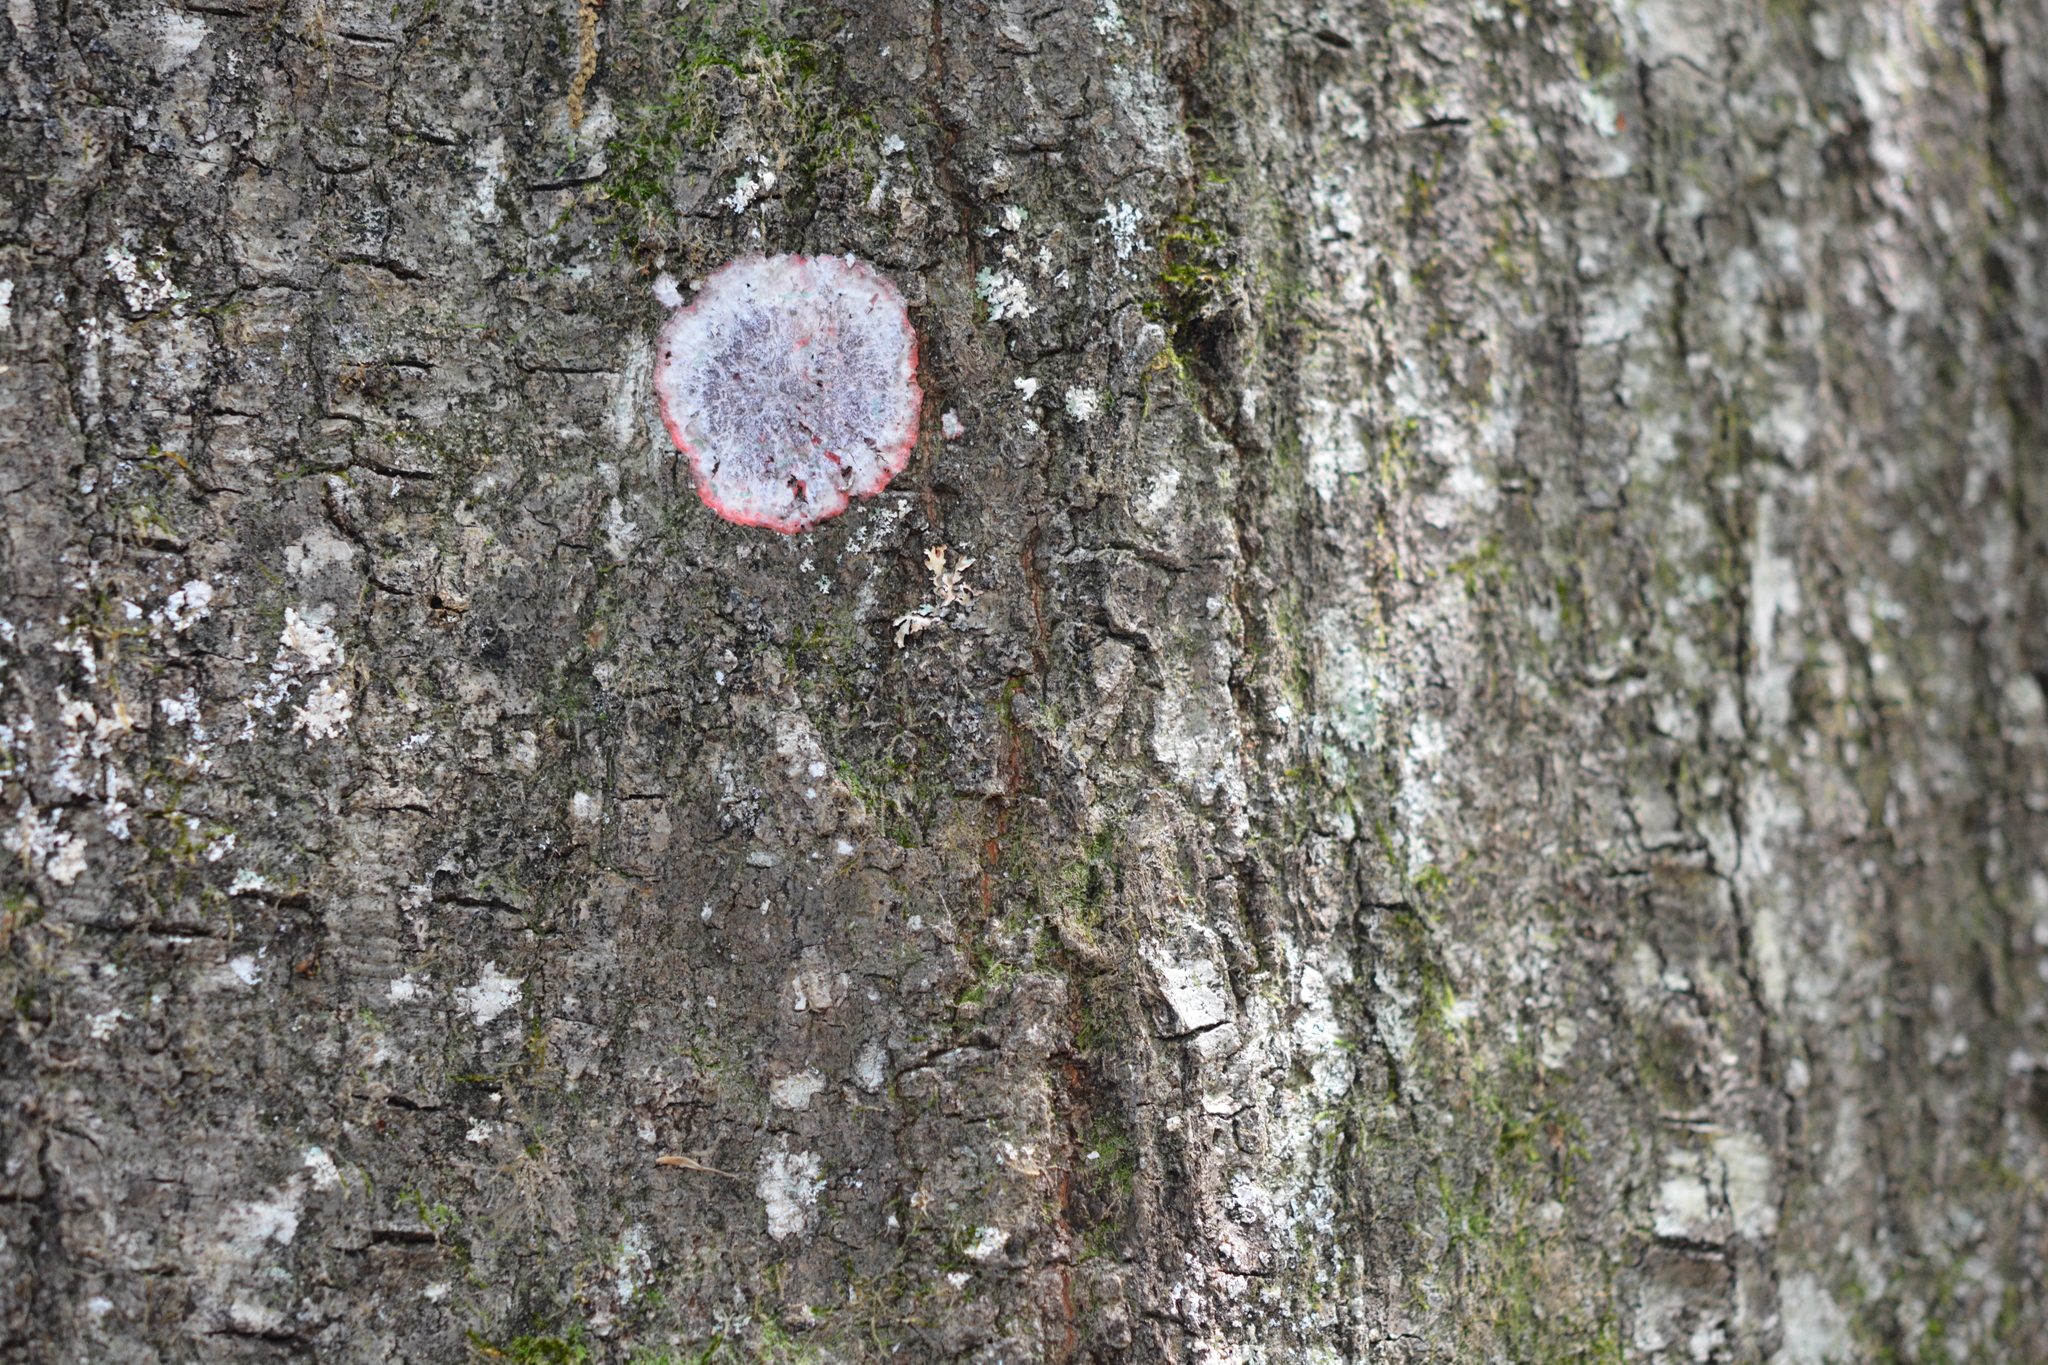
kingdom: Fungi
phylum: Ascomycota
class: Arthoniomycetes
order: Arthoniales
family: Arthoniaceae
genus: Herpothallon
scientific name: Herpothallon rubrocinctum
